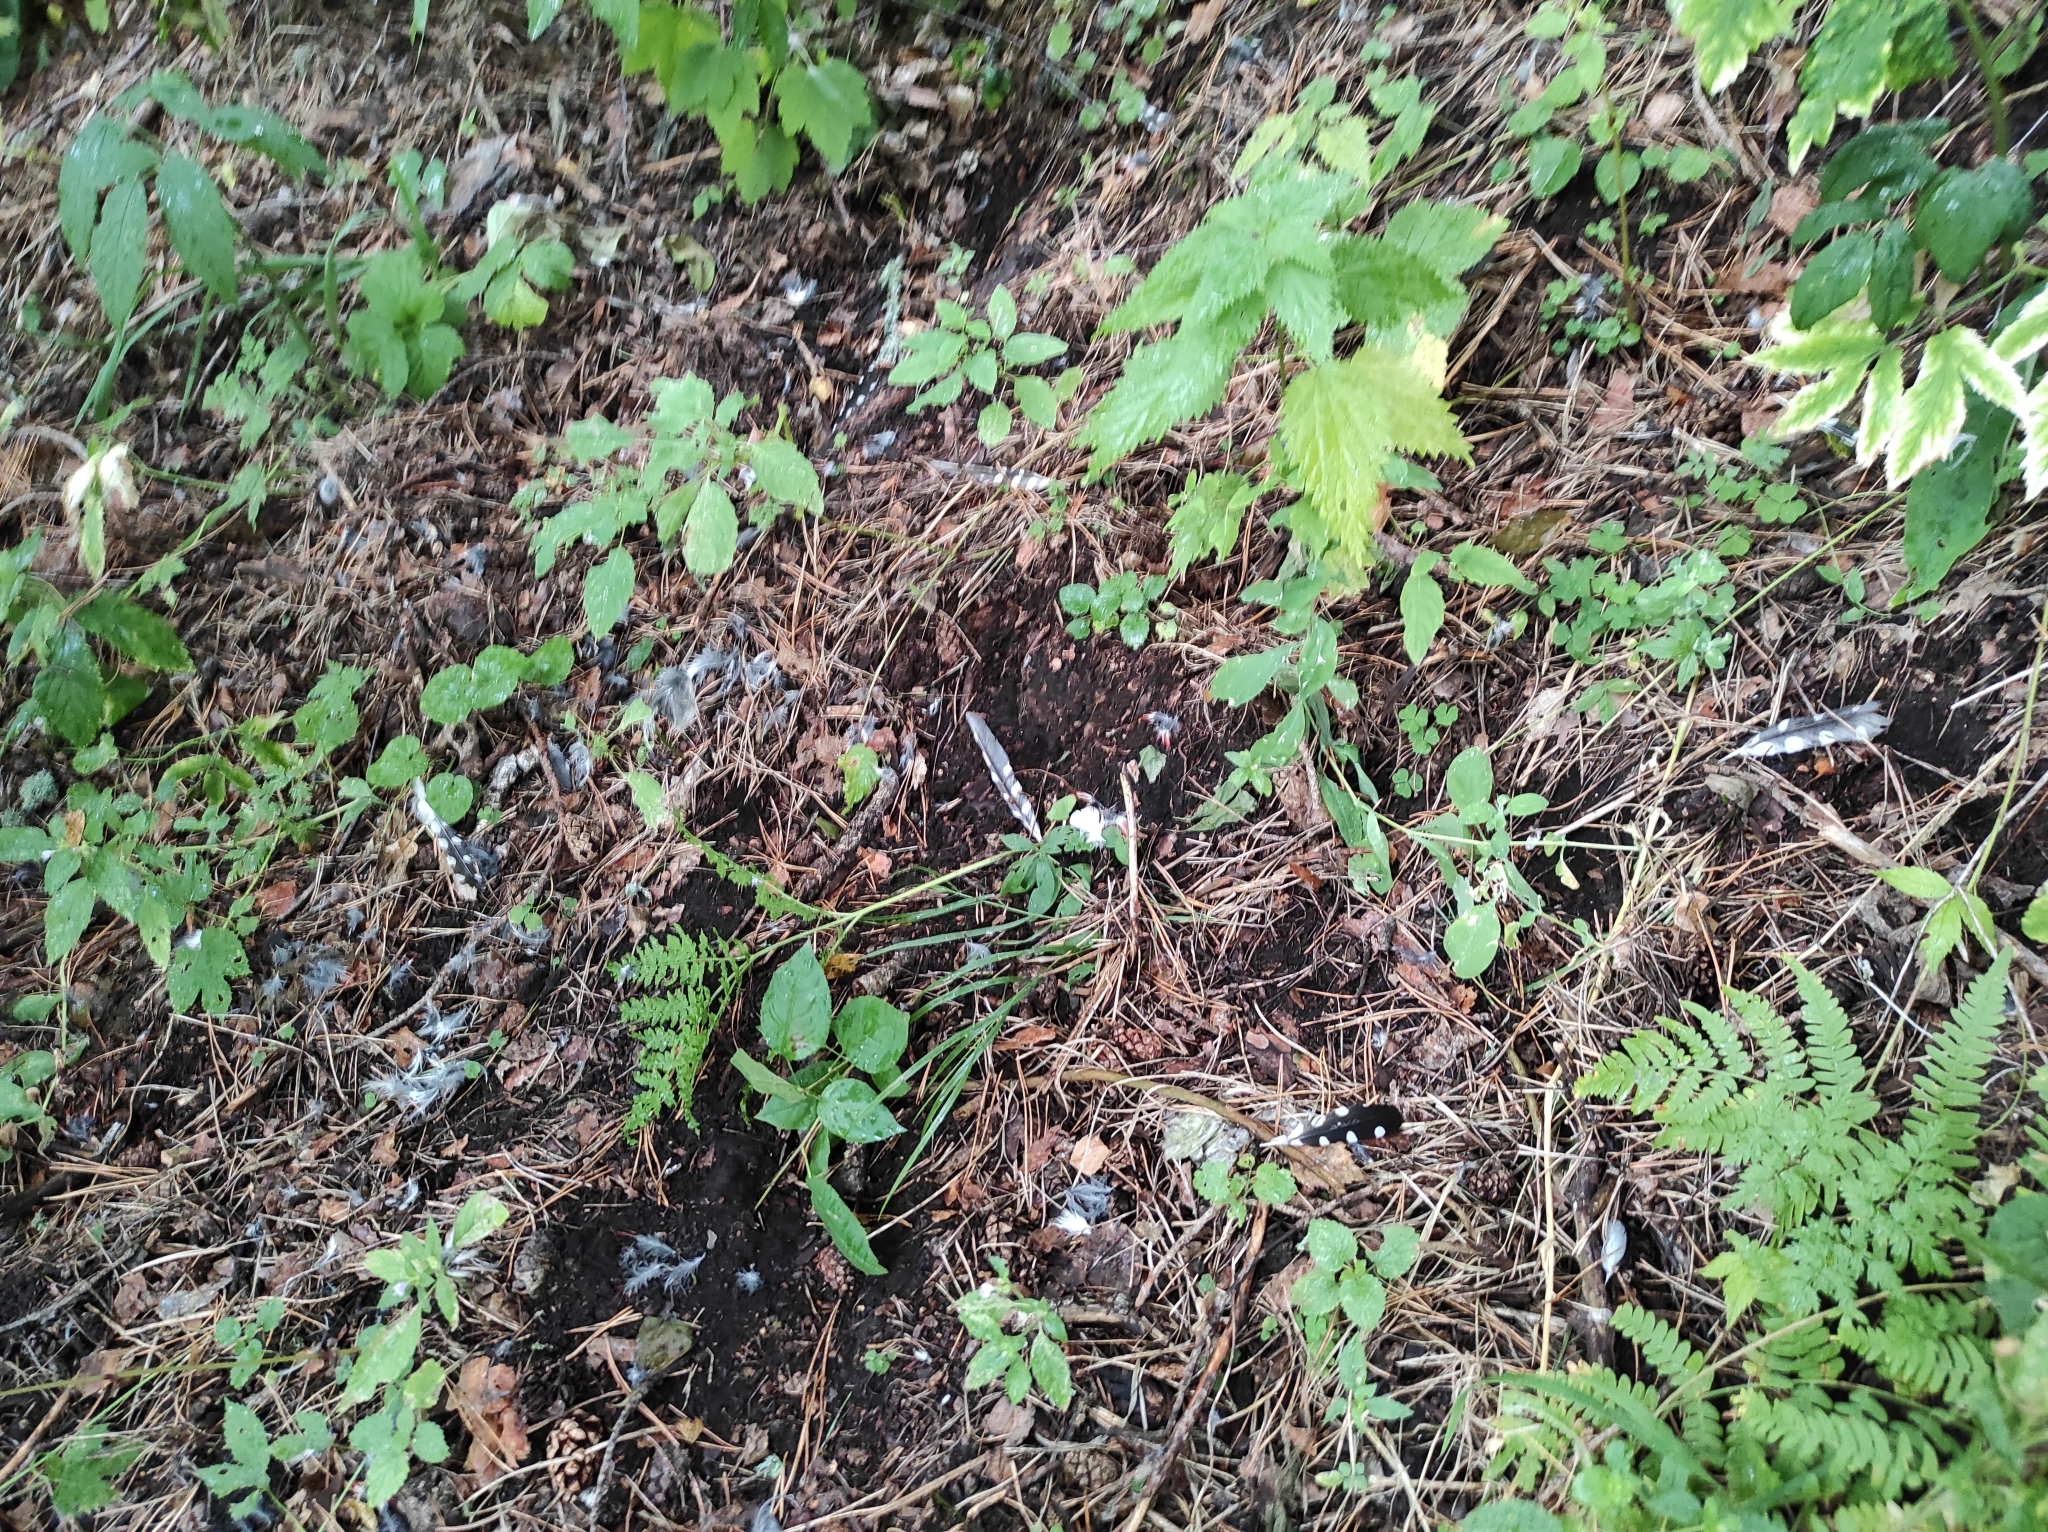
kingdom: Animalia
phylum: Chordata
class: Aves
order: Piciformes
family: Picidae
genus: Dendrocopos
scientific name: Dendrocopos major
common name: Great spotted woodpecker
